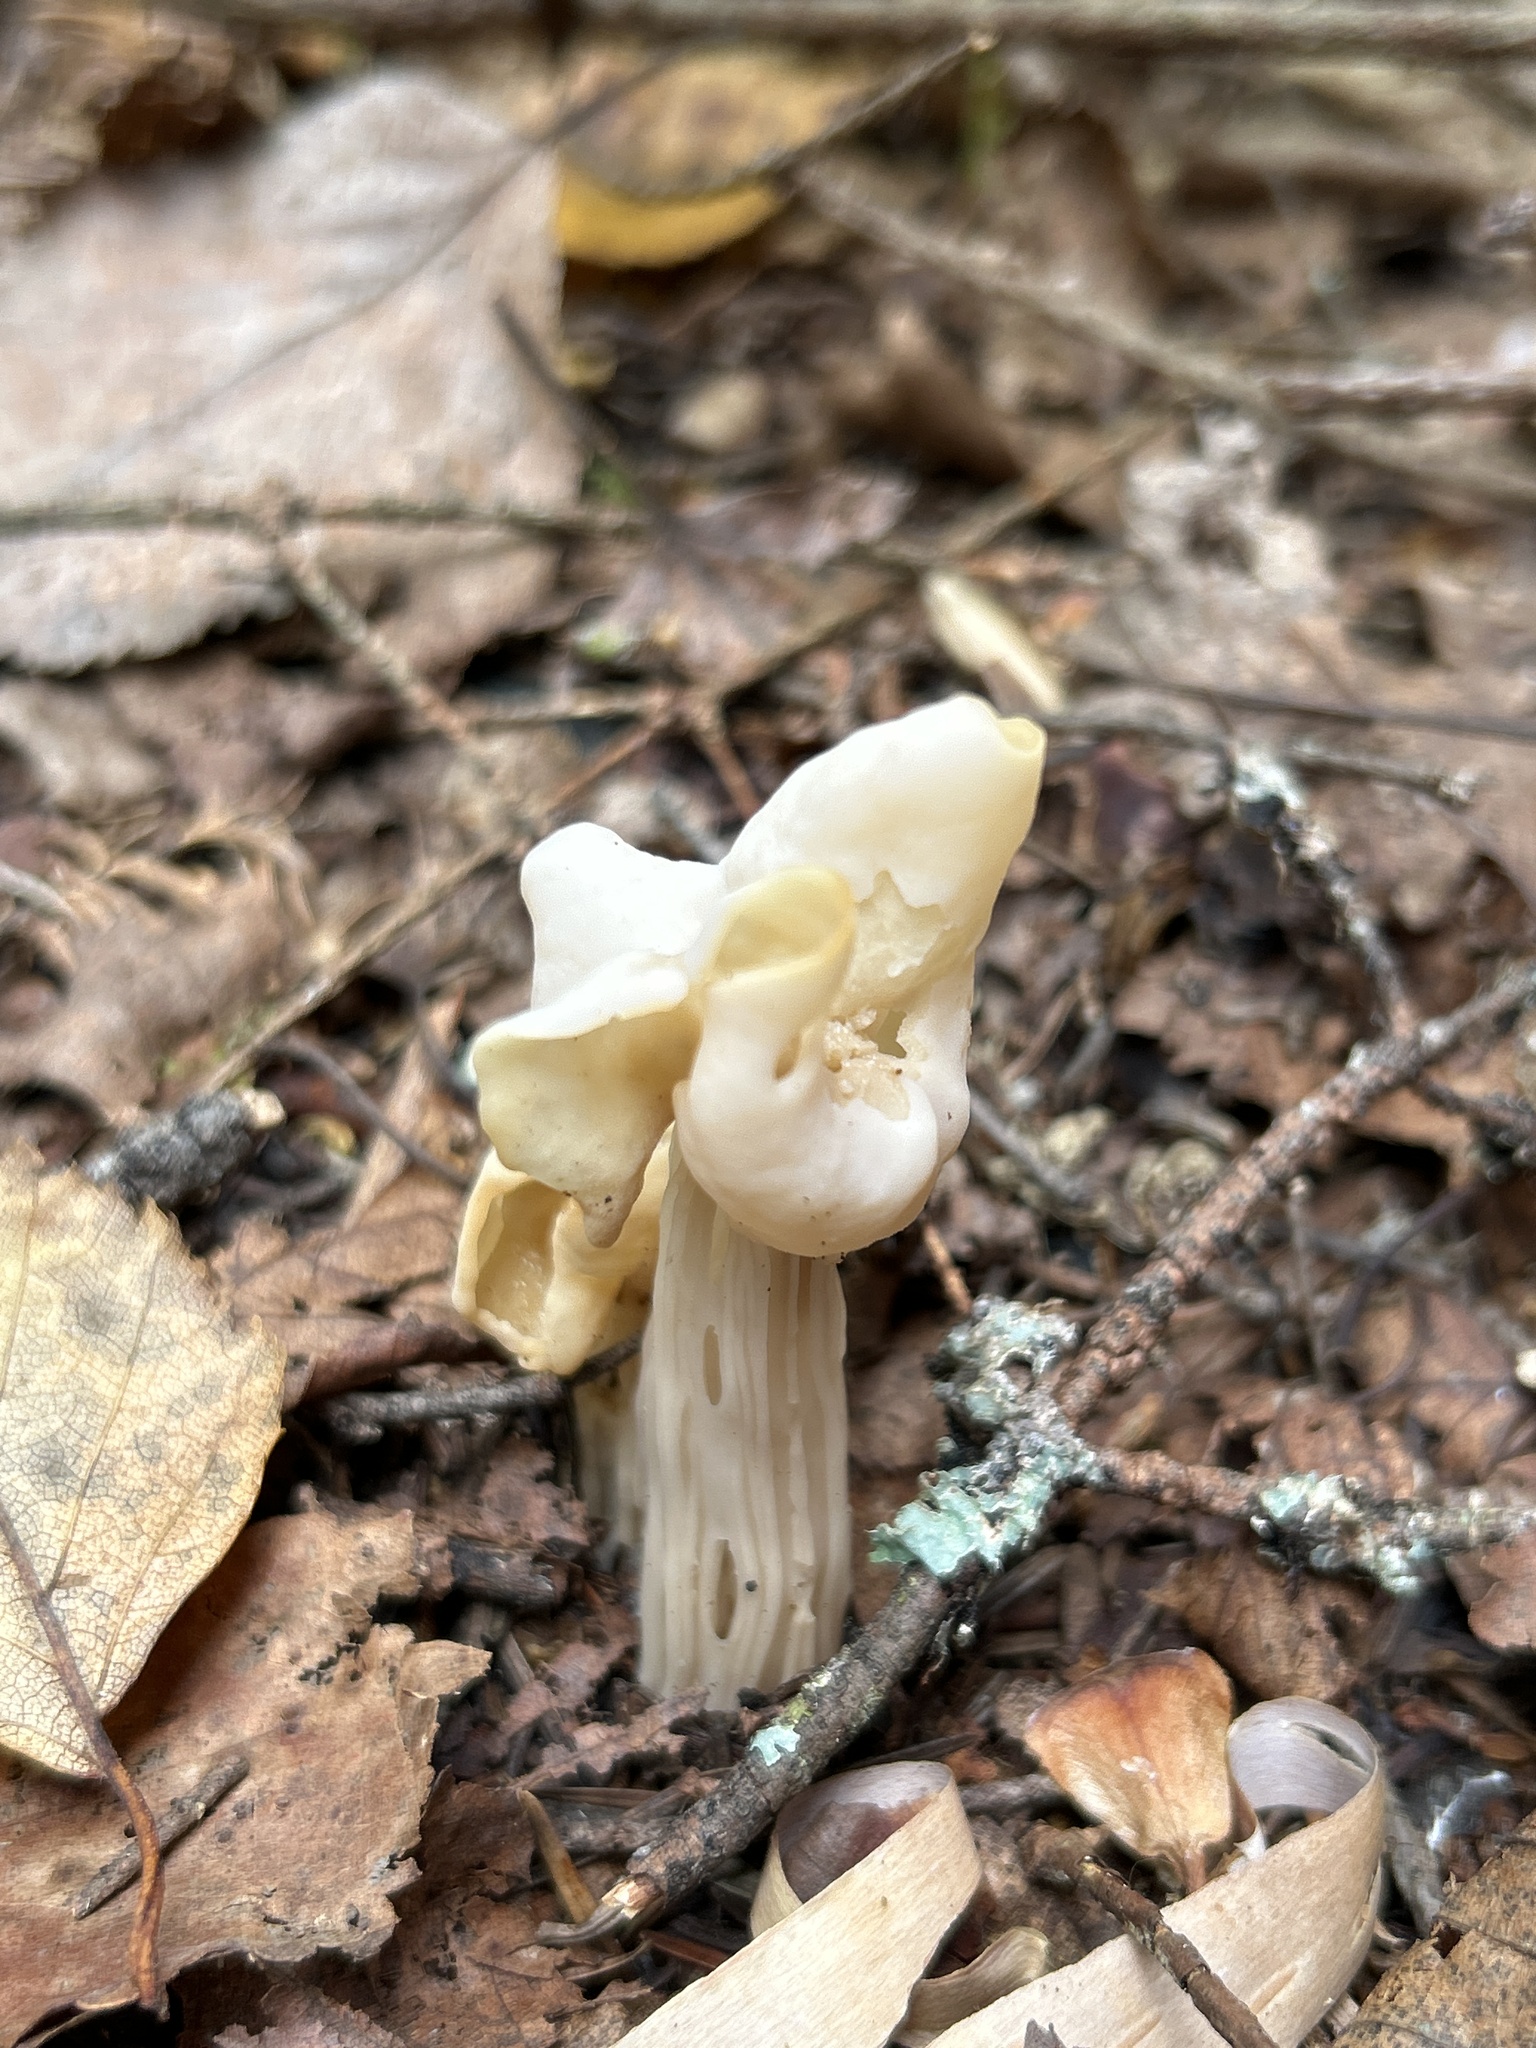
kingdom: Fungi
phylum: Ascomycota
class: Pezizomycetes
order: Pezizales
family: Helvellaceae
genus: Helvella
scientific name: Helvella crispa
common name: White saddle
